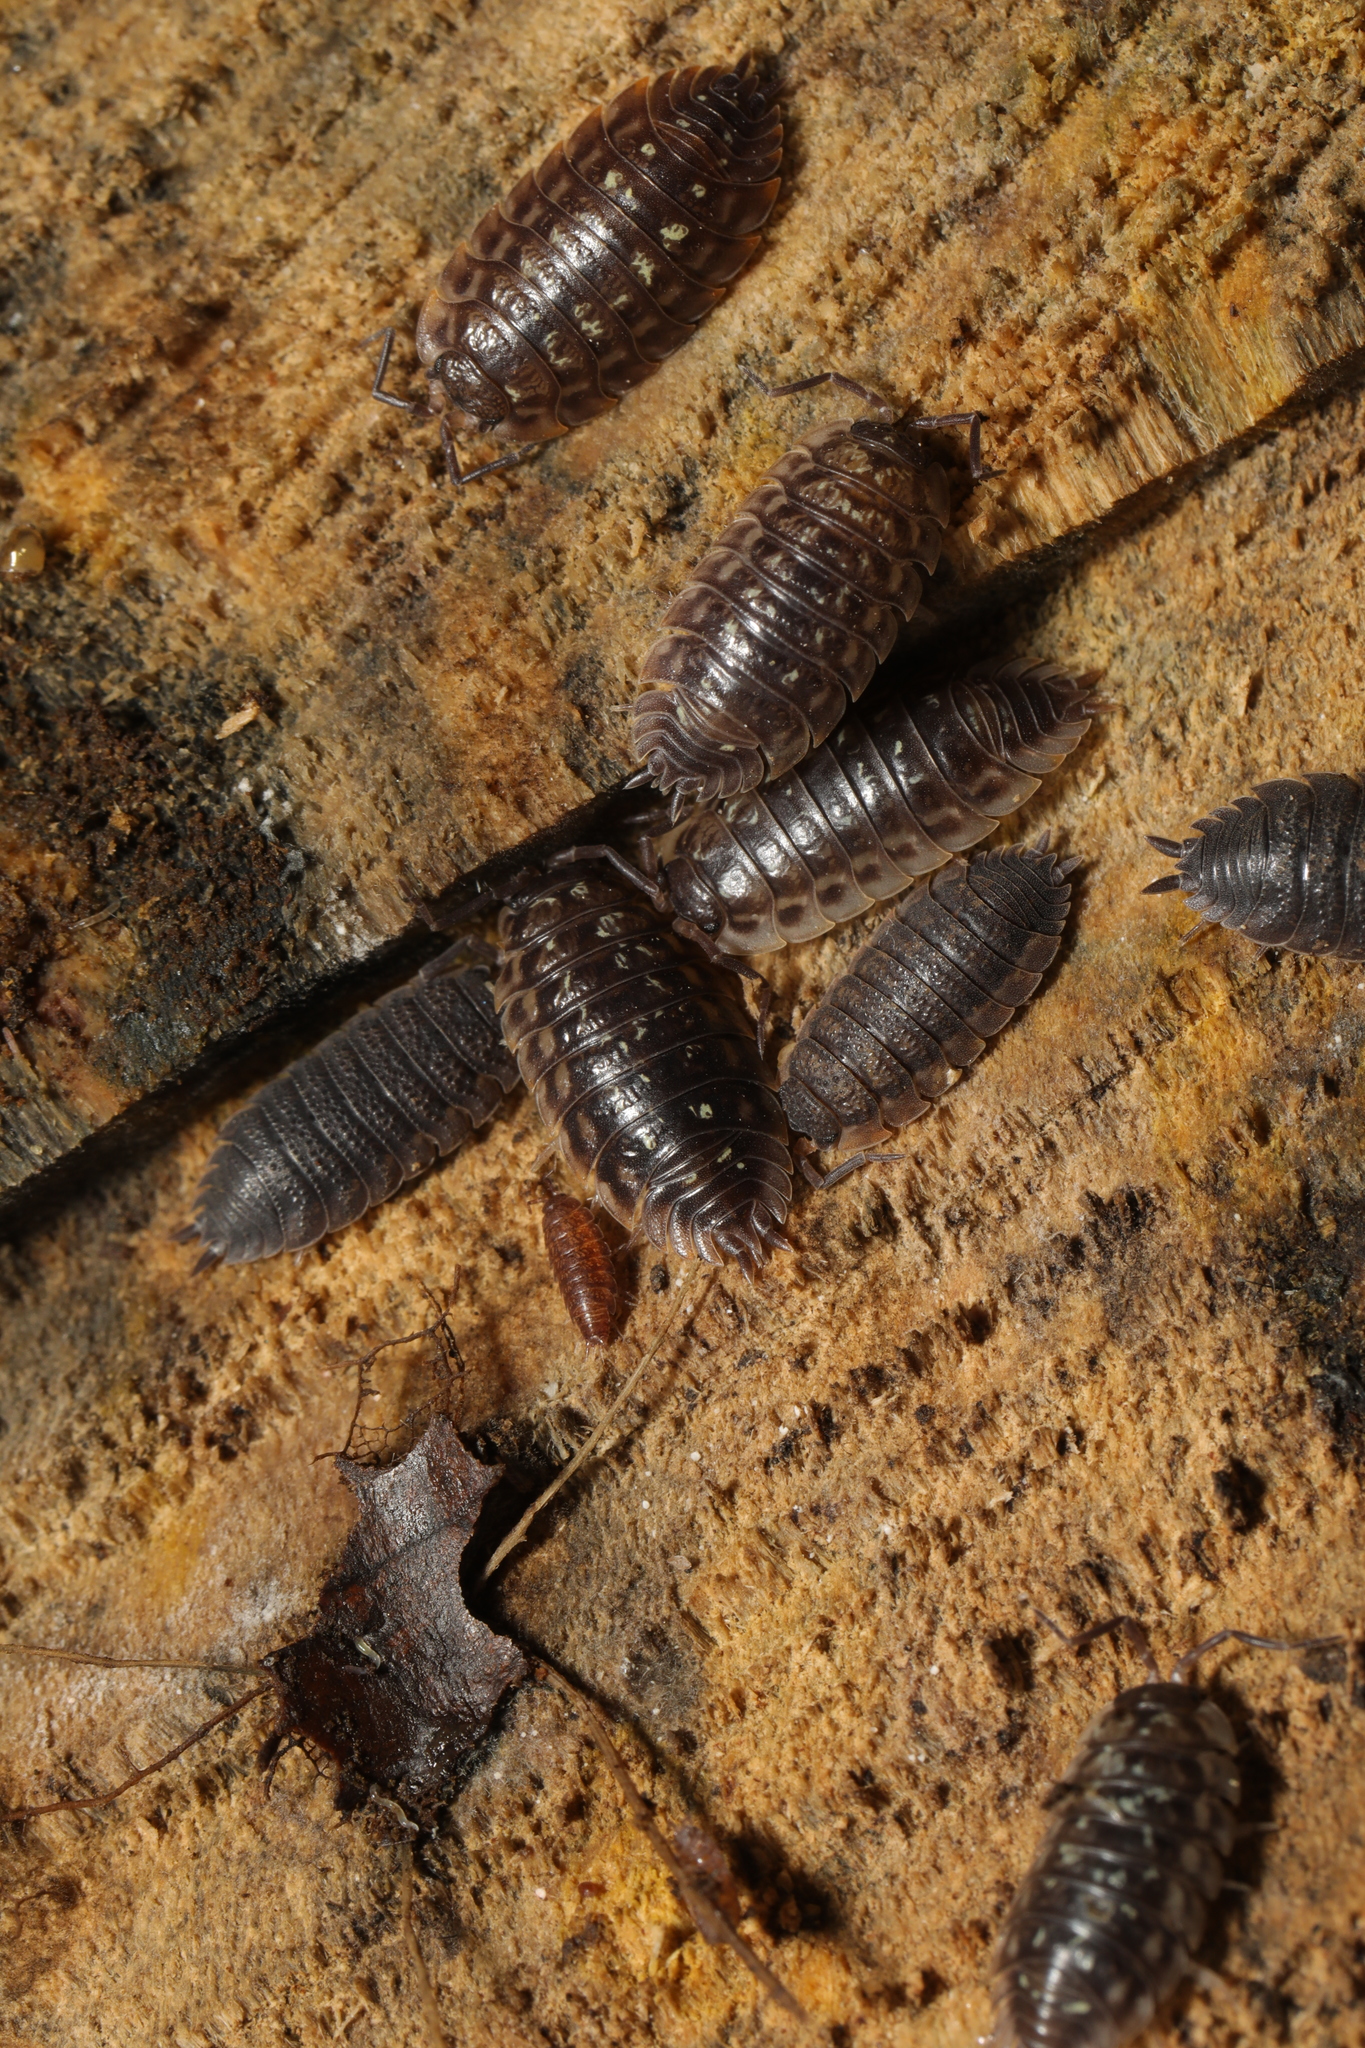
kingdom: Animalia
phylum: Arthropoda
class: Malacostraca
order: Isopoda
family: Oniscidae
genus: Oniscus
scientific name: Oniscus asellus
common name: Common shiny woodlouse
